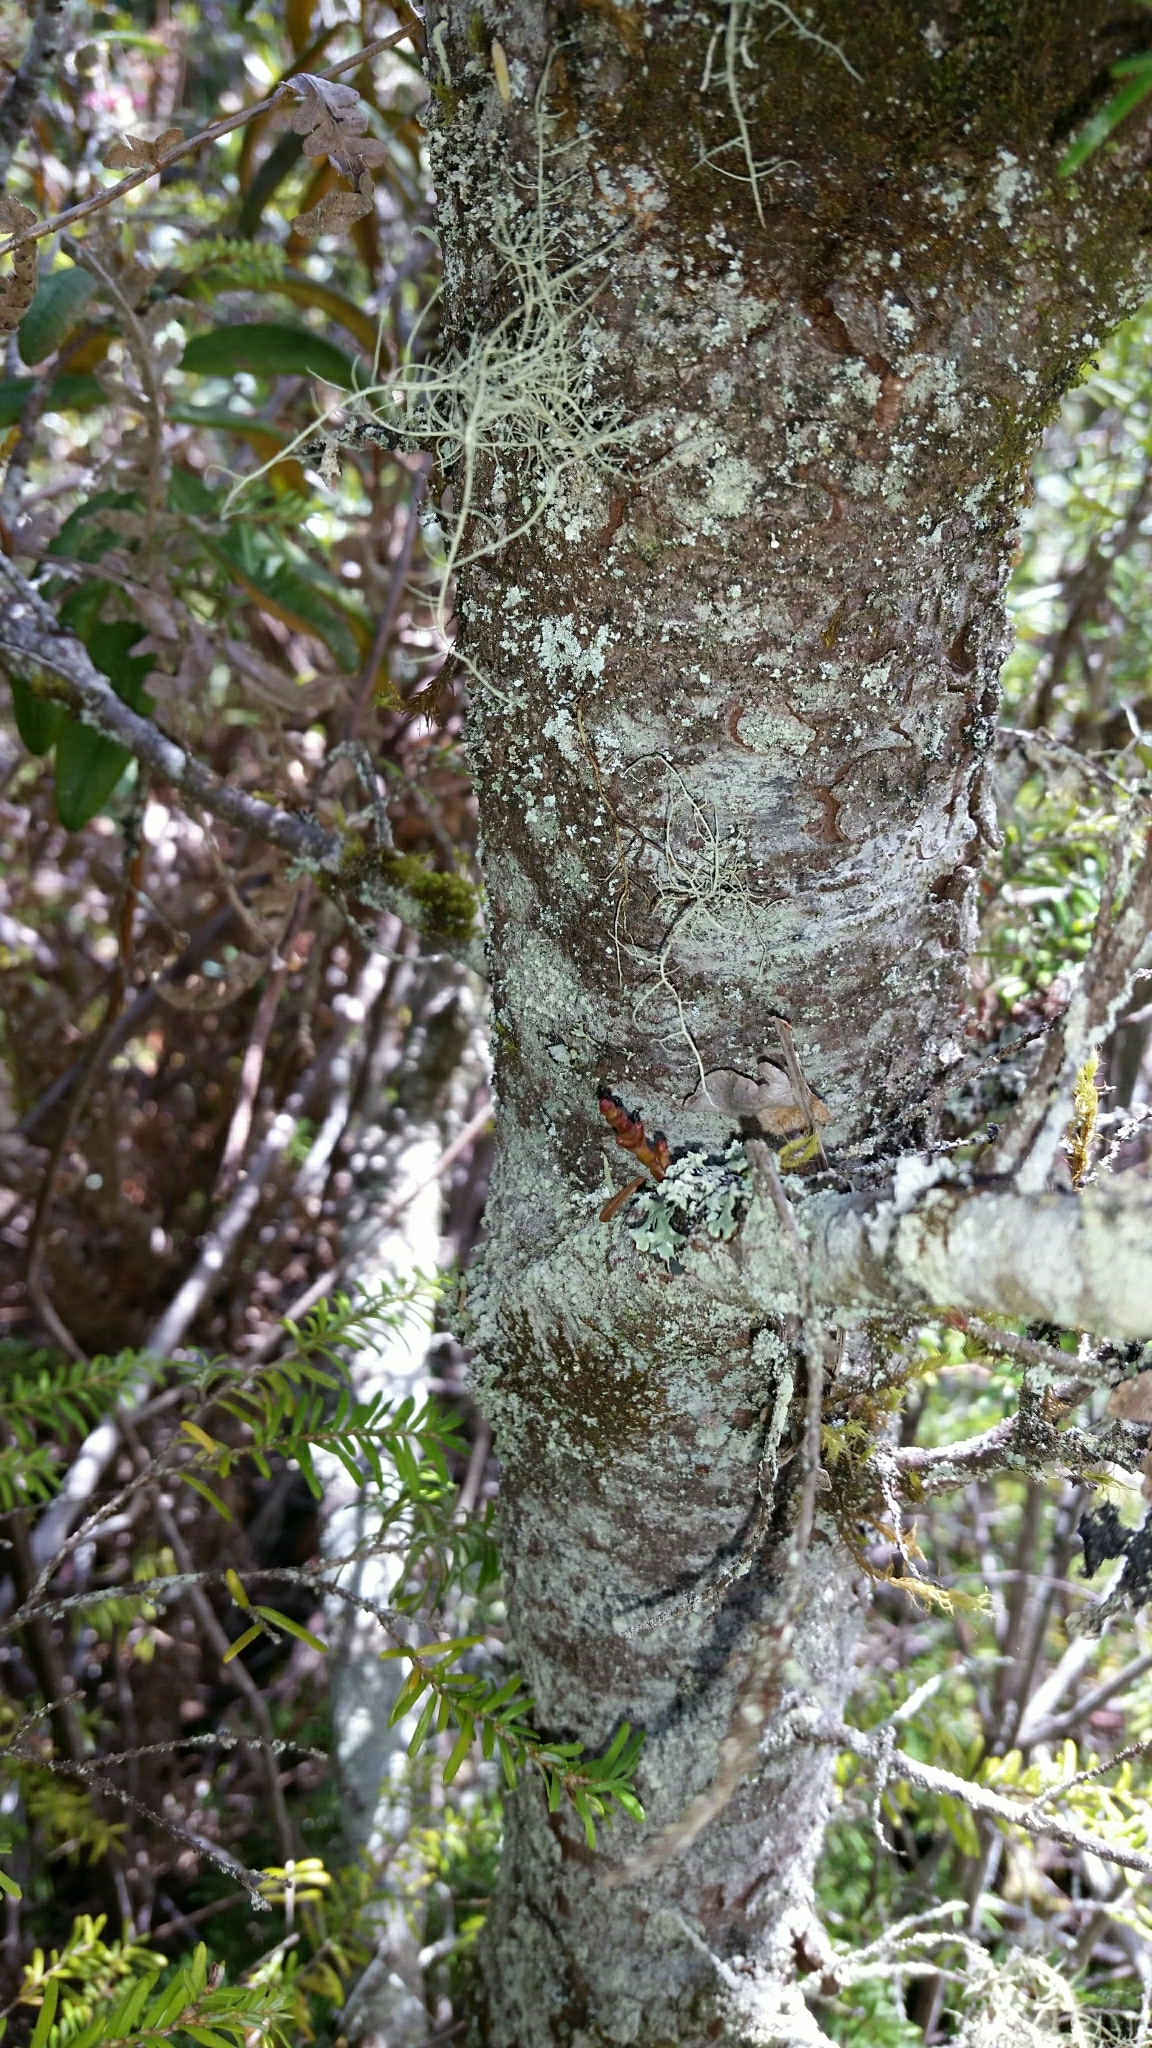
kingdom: Plantae
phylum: Tracheophyta
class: Pinopsida
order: Pinales
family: Pinaceae
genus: Tsuga
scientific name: Tsuga heterophylla
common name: Western hemlock
